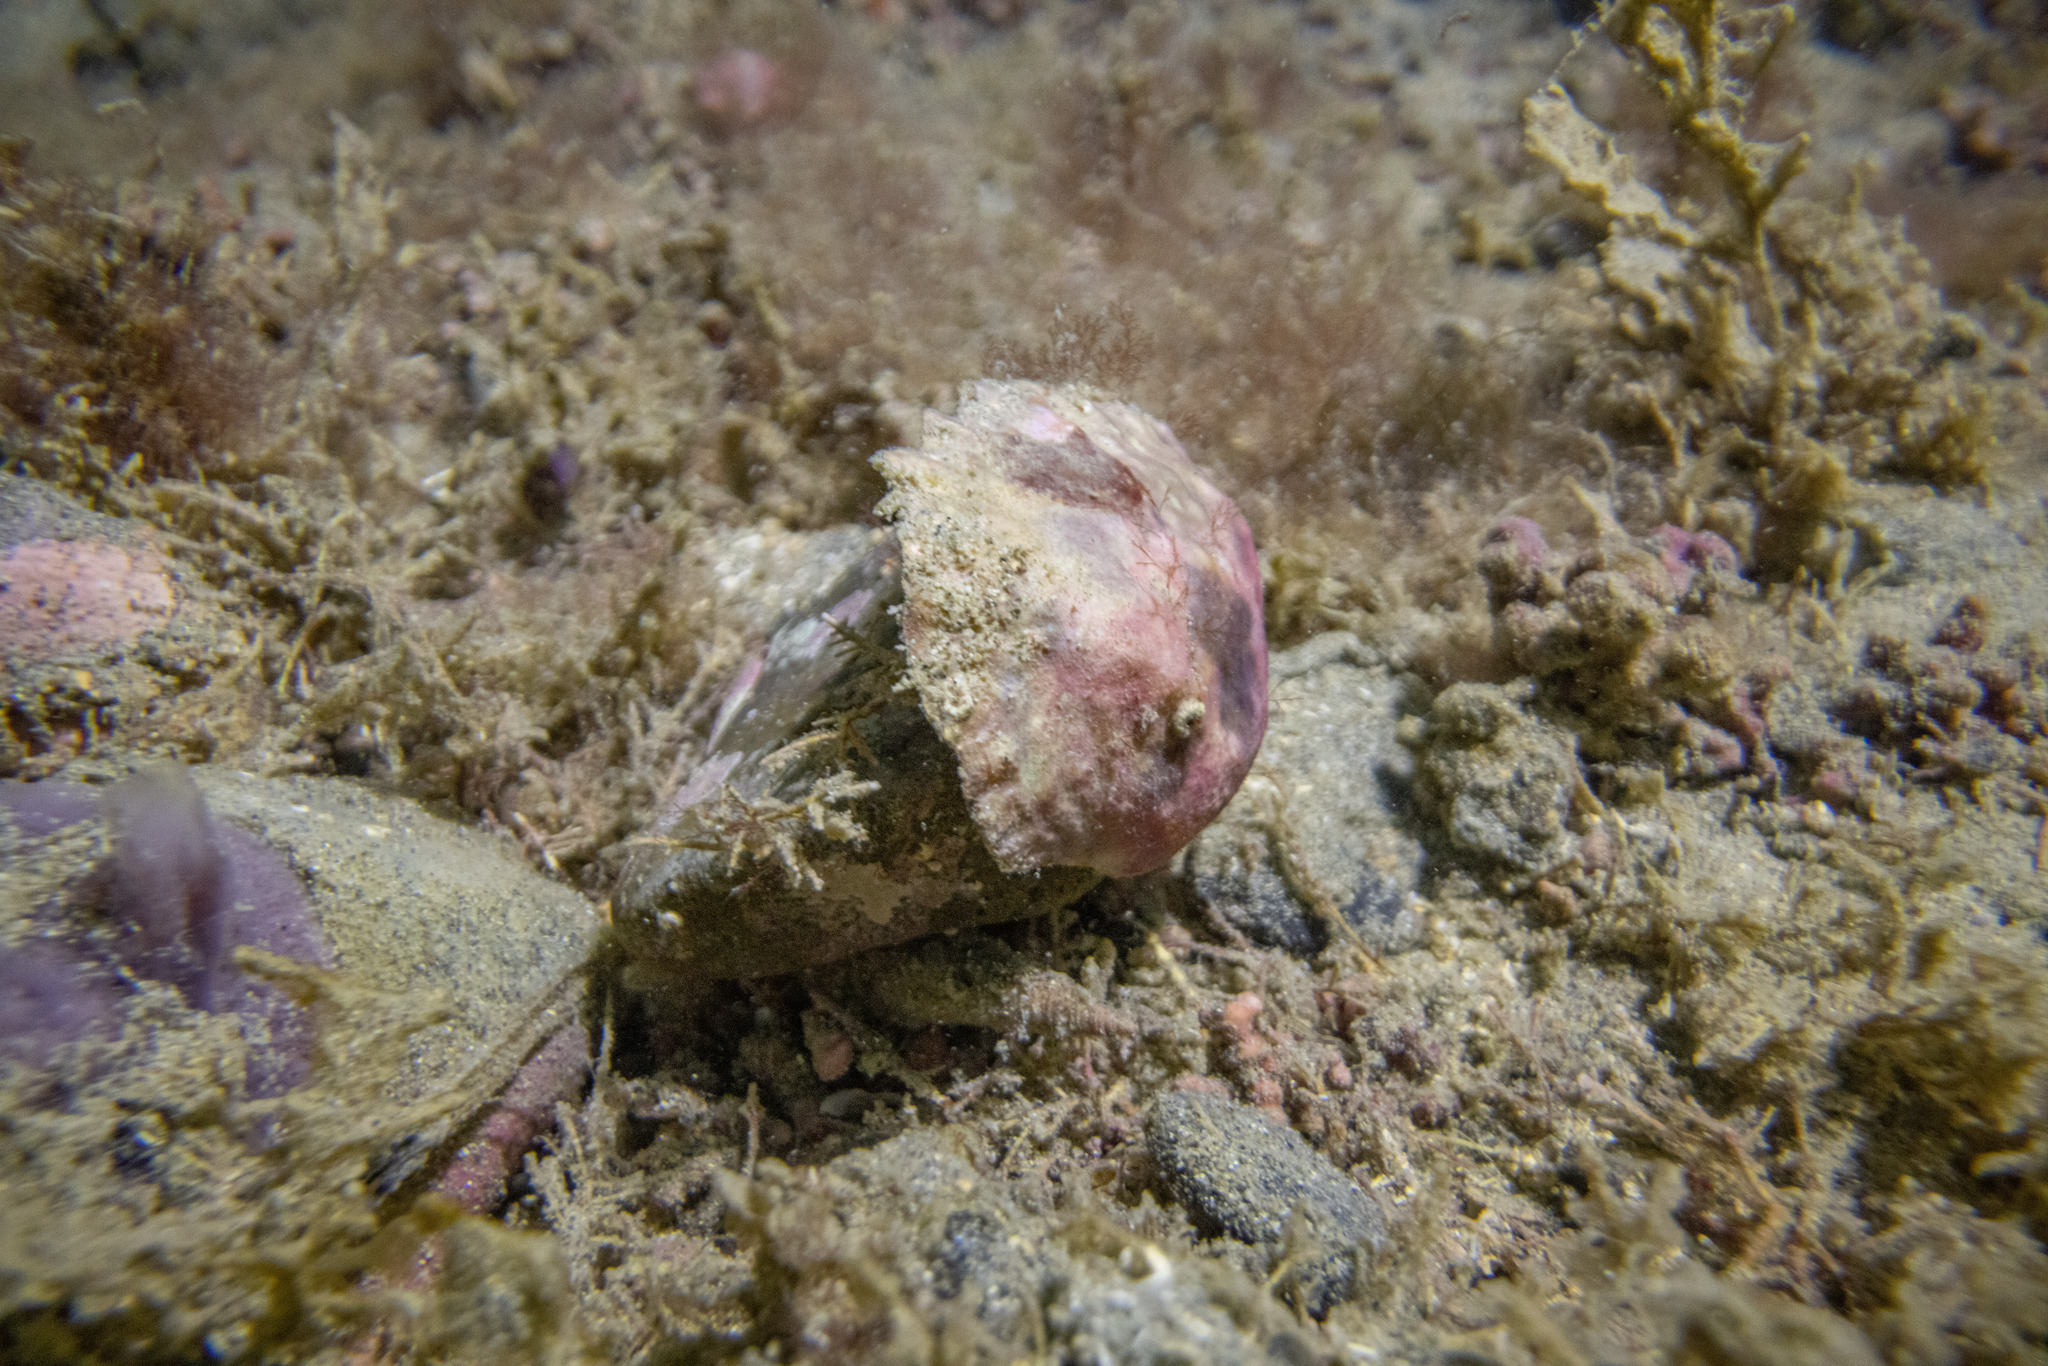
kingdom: Animalia
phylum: Mollusca
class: Bivalvia
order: Ostreida
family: Ostreidae
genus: Ostrea
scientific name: Ostrea chilensis
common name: Chilean oyster
